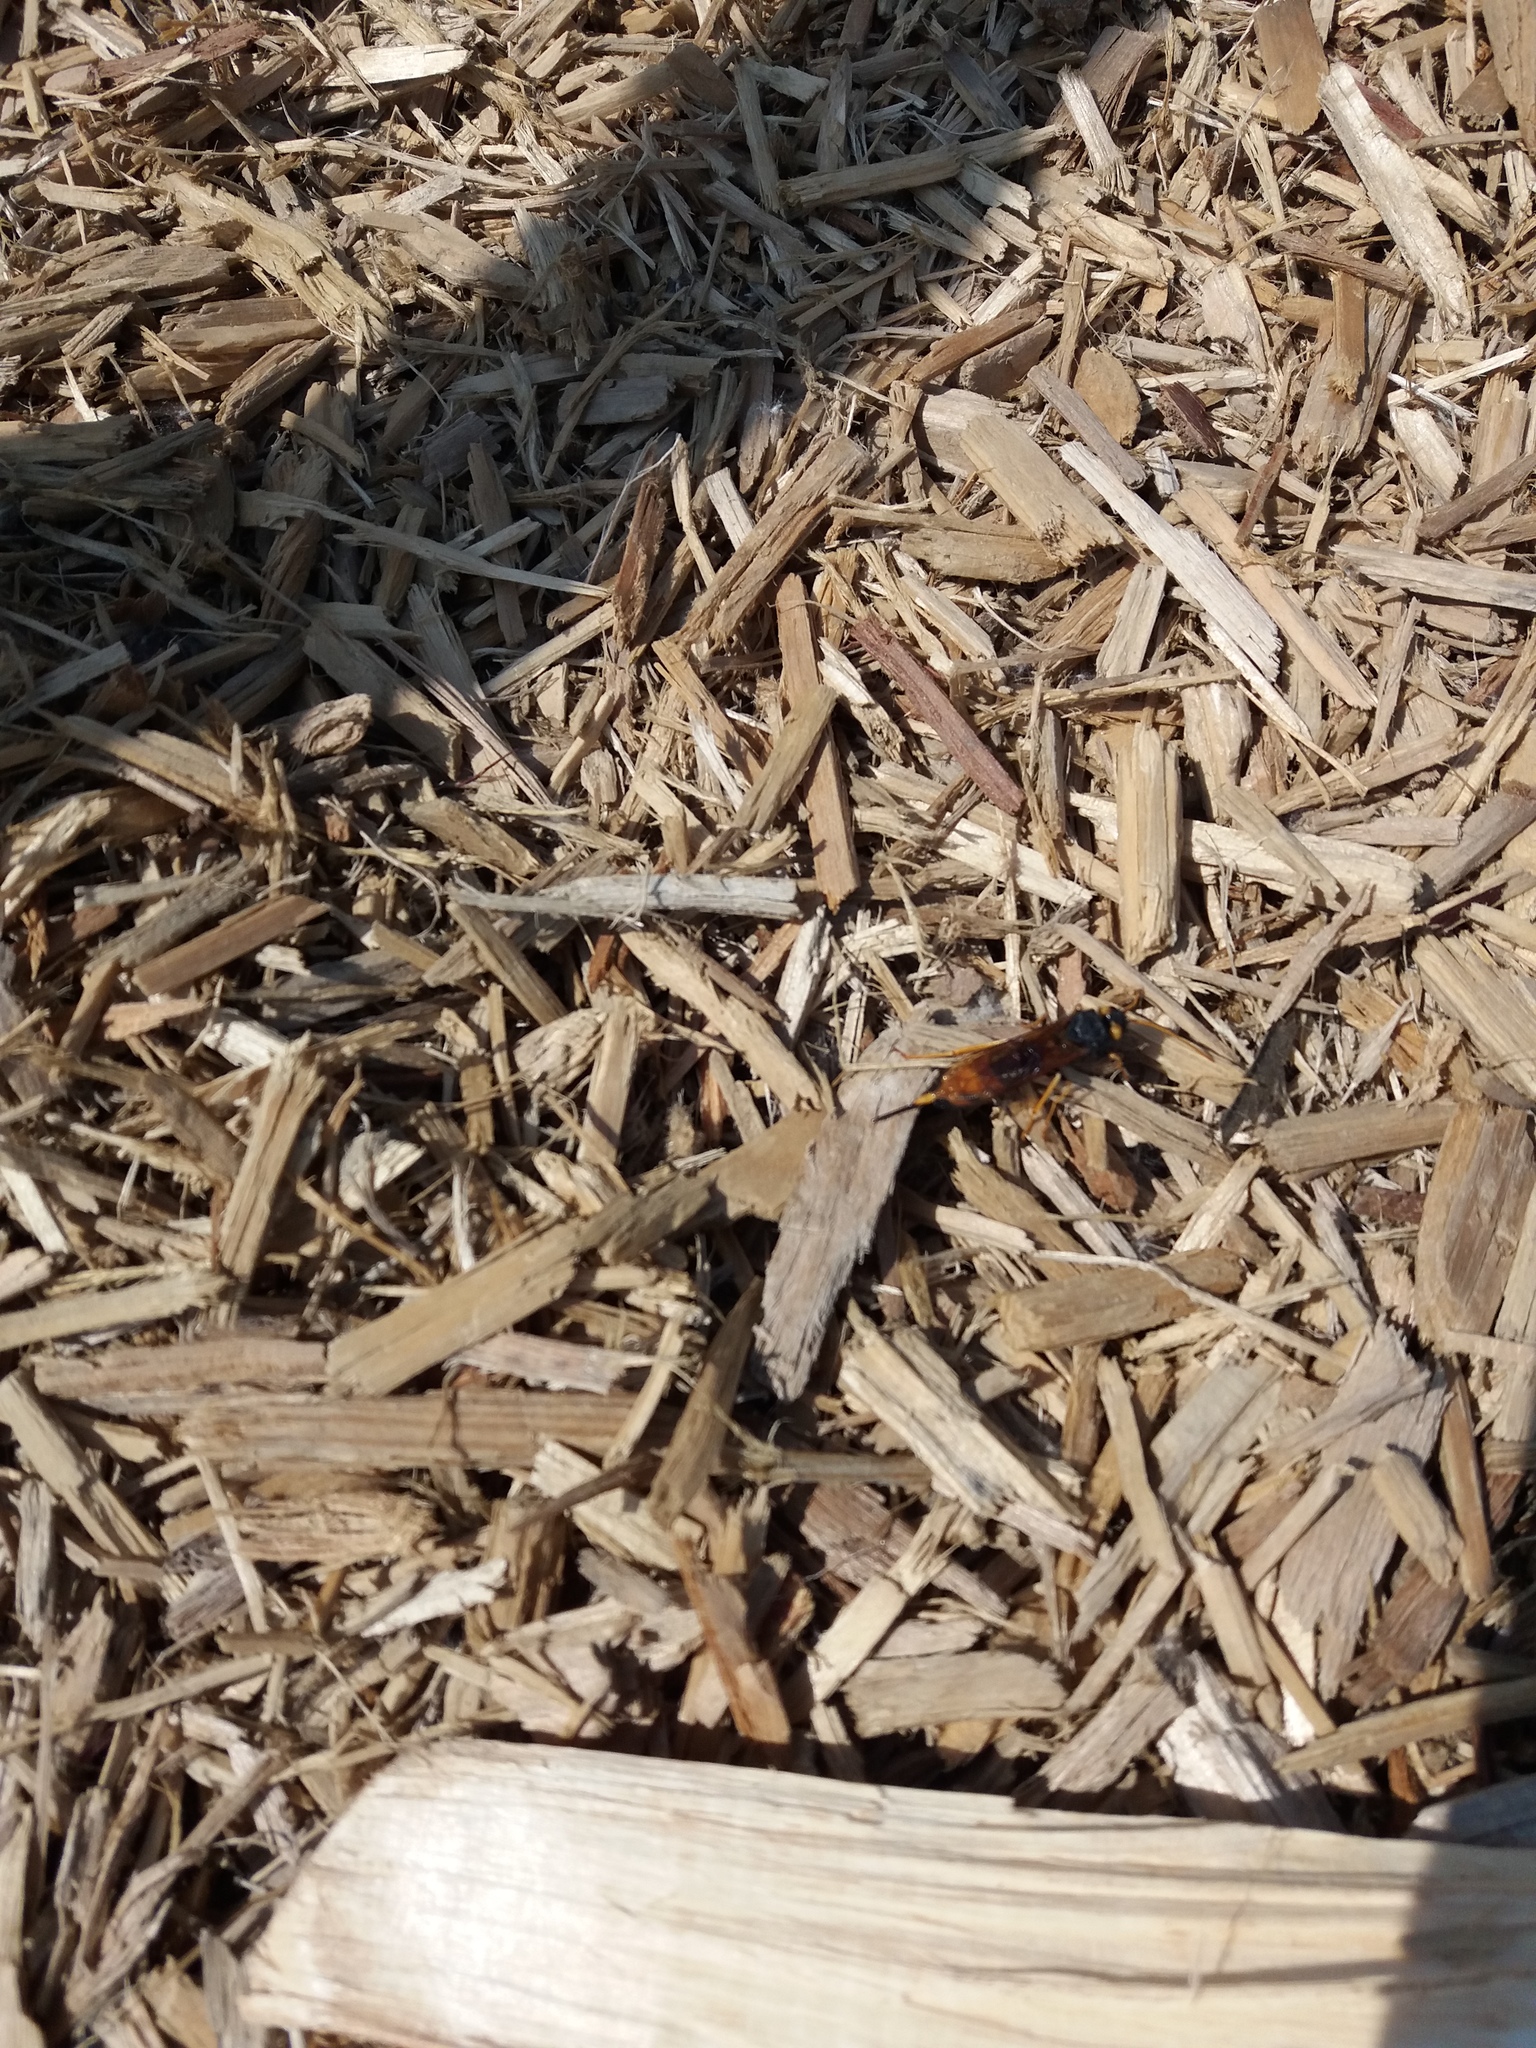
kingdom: Animalia
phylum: Arthropoda
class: Insecta
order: Hymenoptera
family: Siricidae
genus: Urocerus
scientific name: Urocerus gigas
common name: Giant woodwasp
